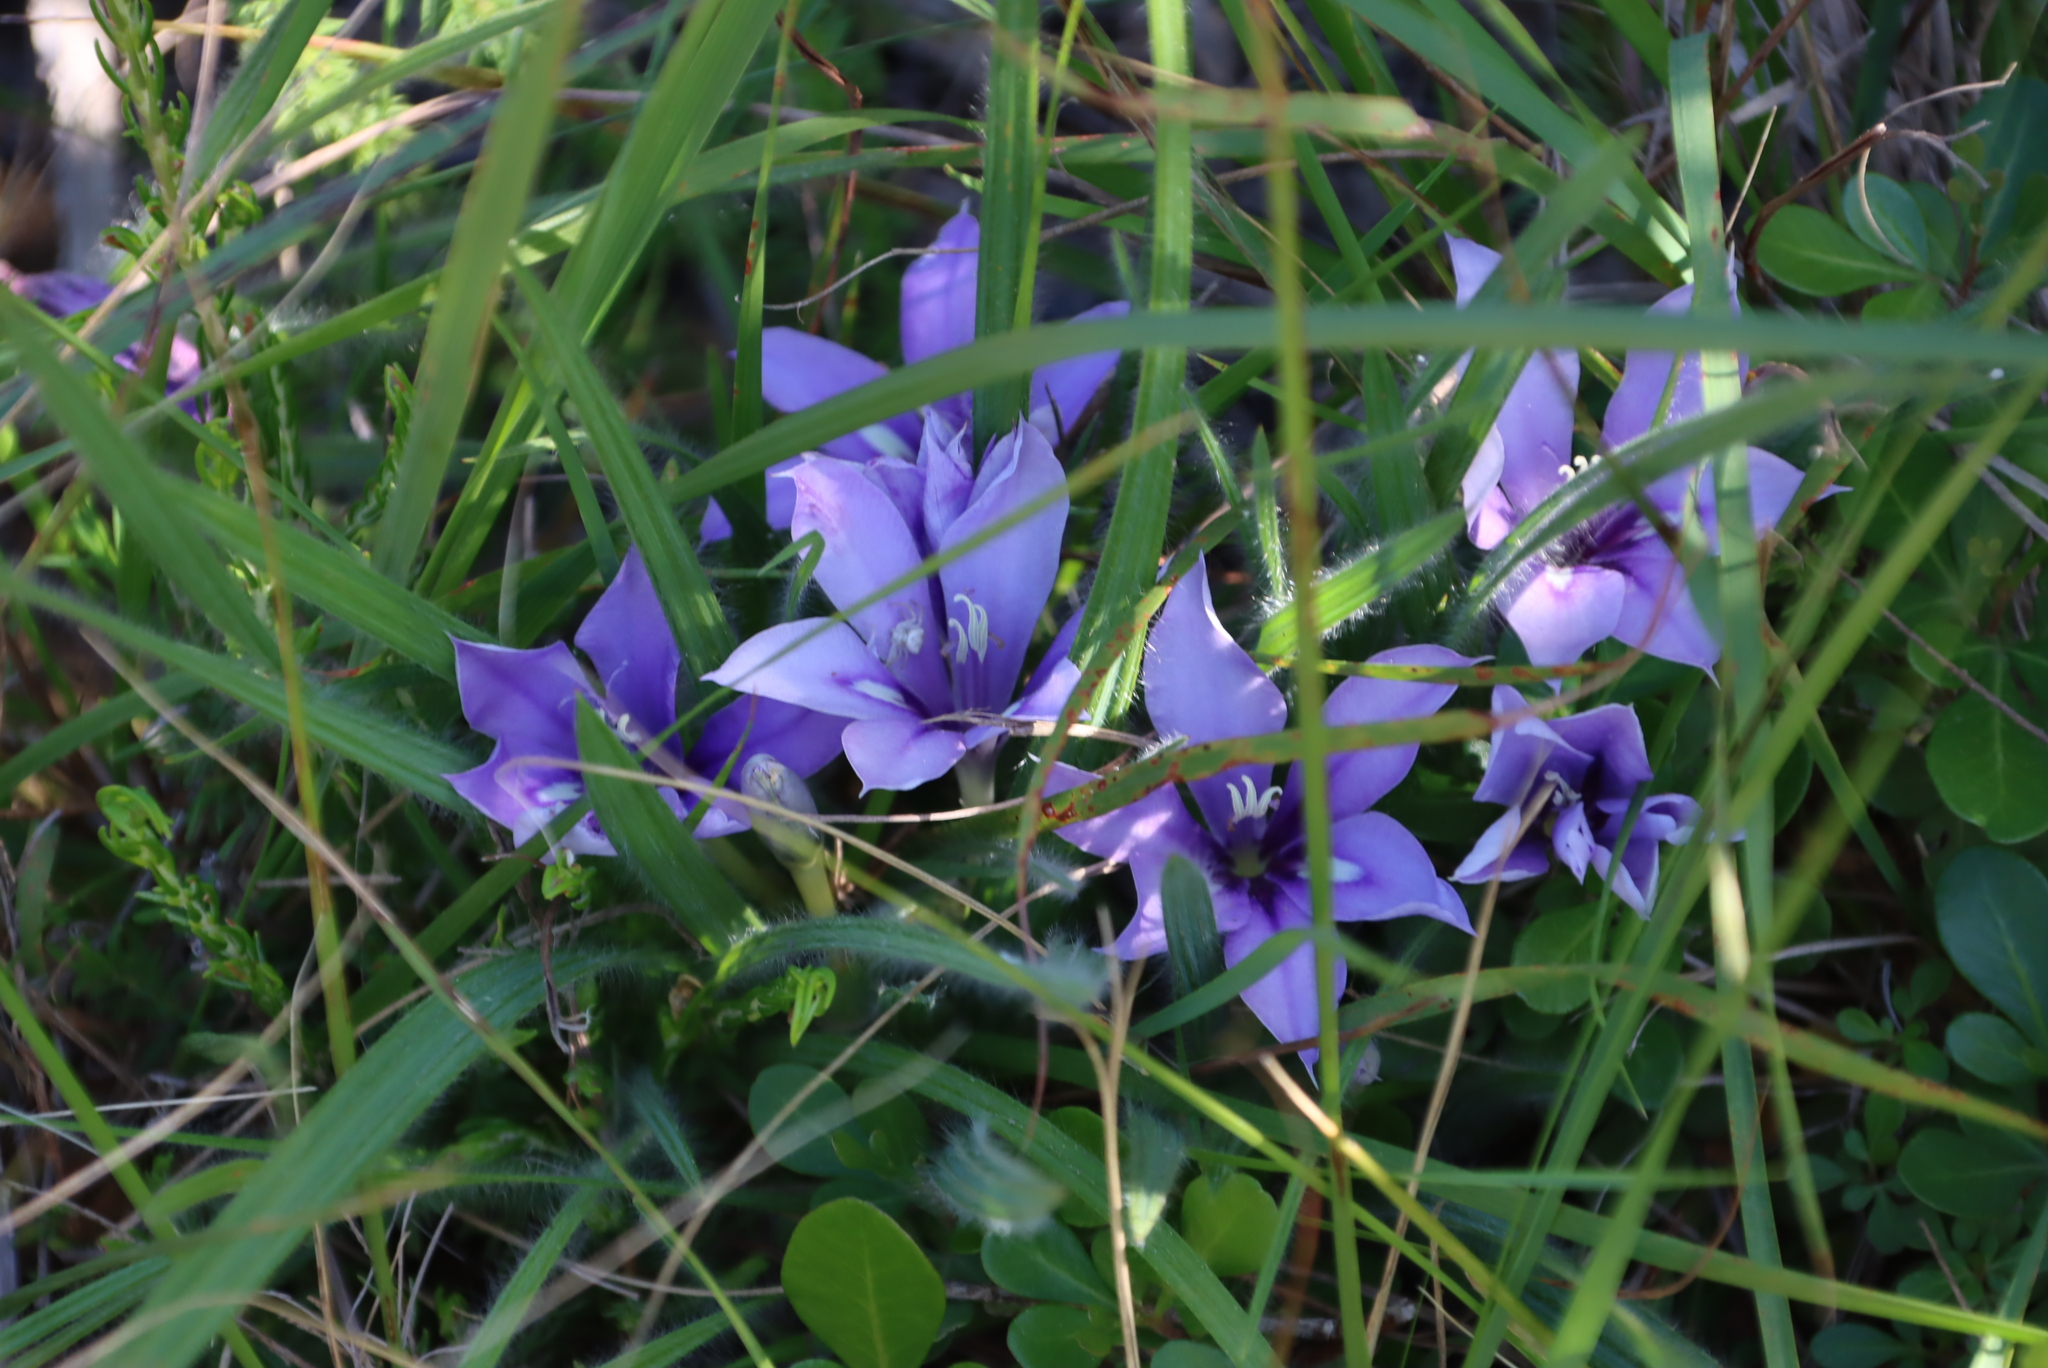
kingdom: Plantae
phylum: Tracheophyta
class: Liliopsida
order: Asparagales
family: Iridaceae
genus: Babiana
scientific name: Babiana sambucina
